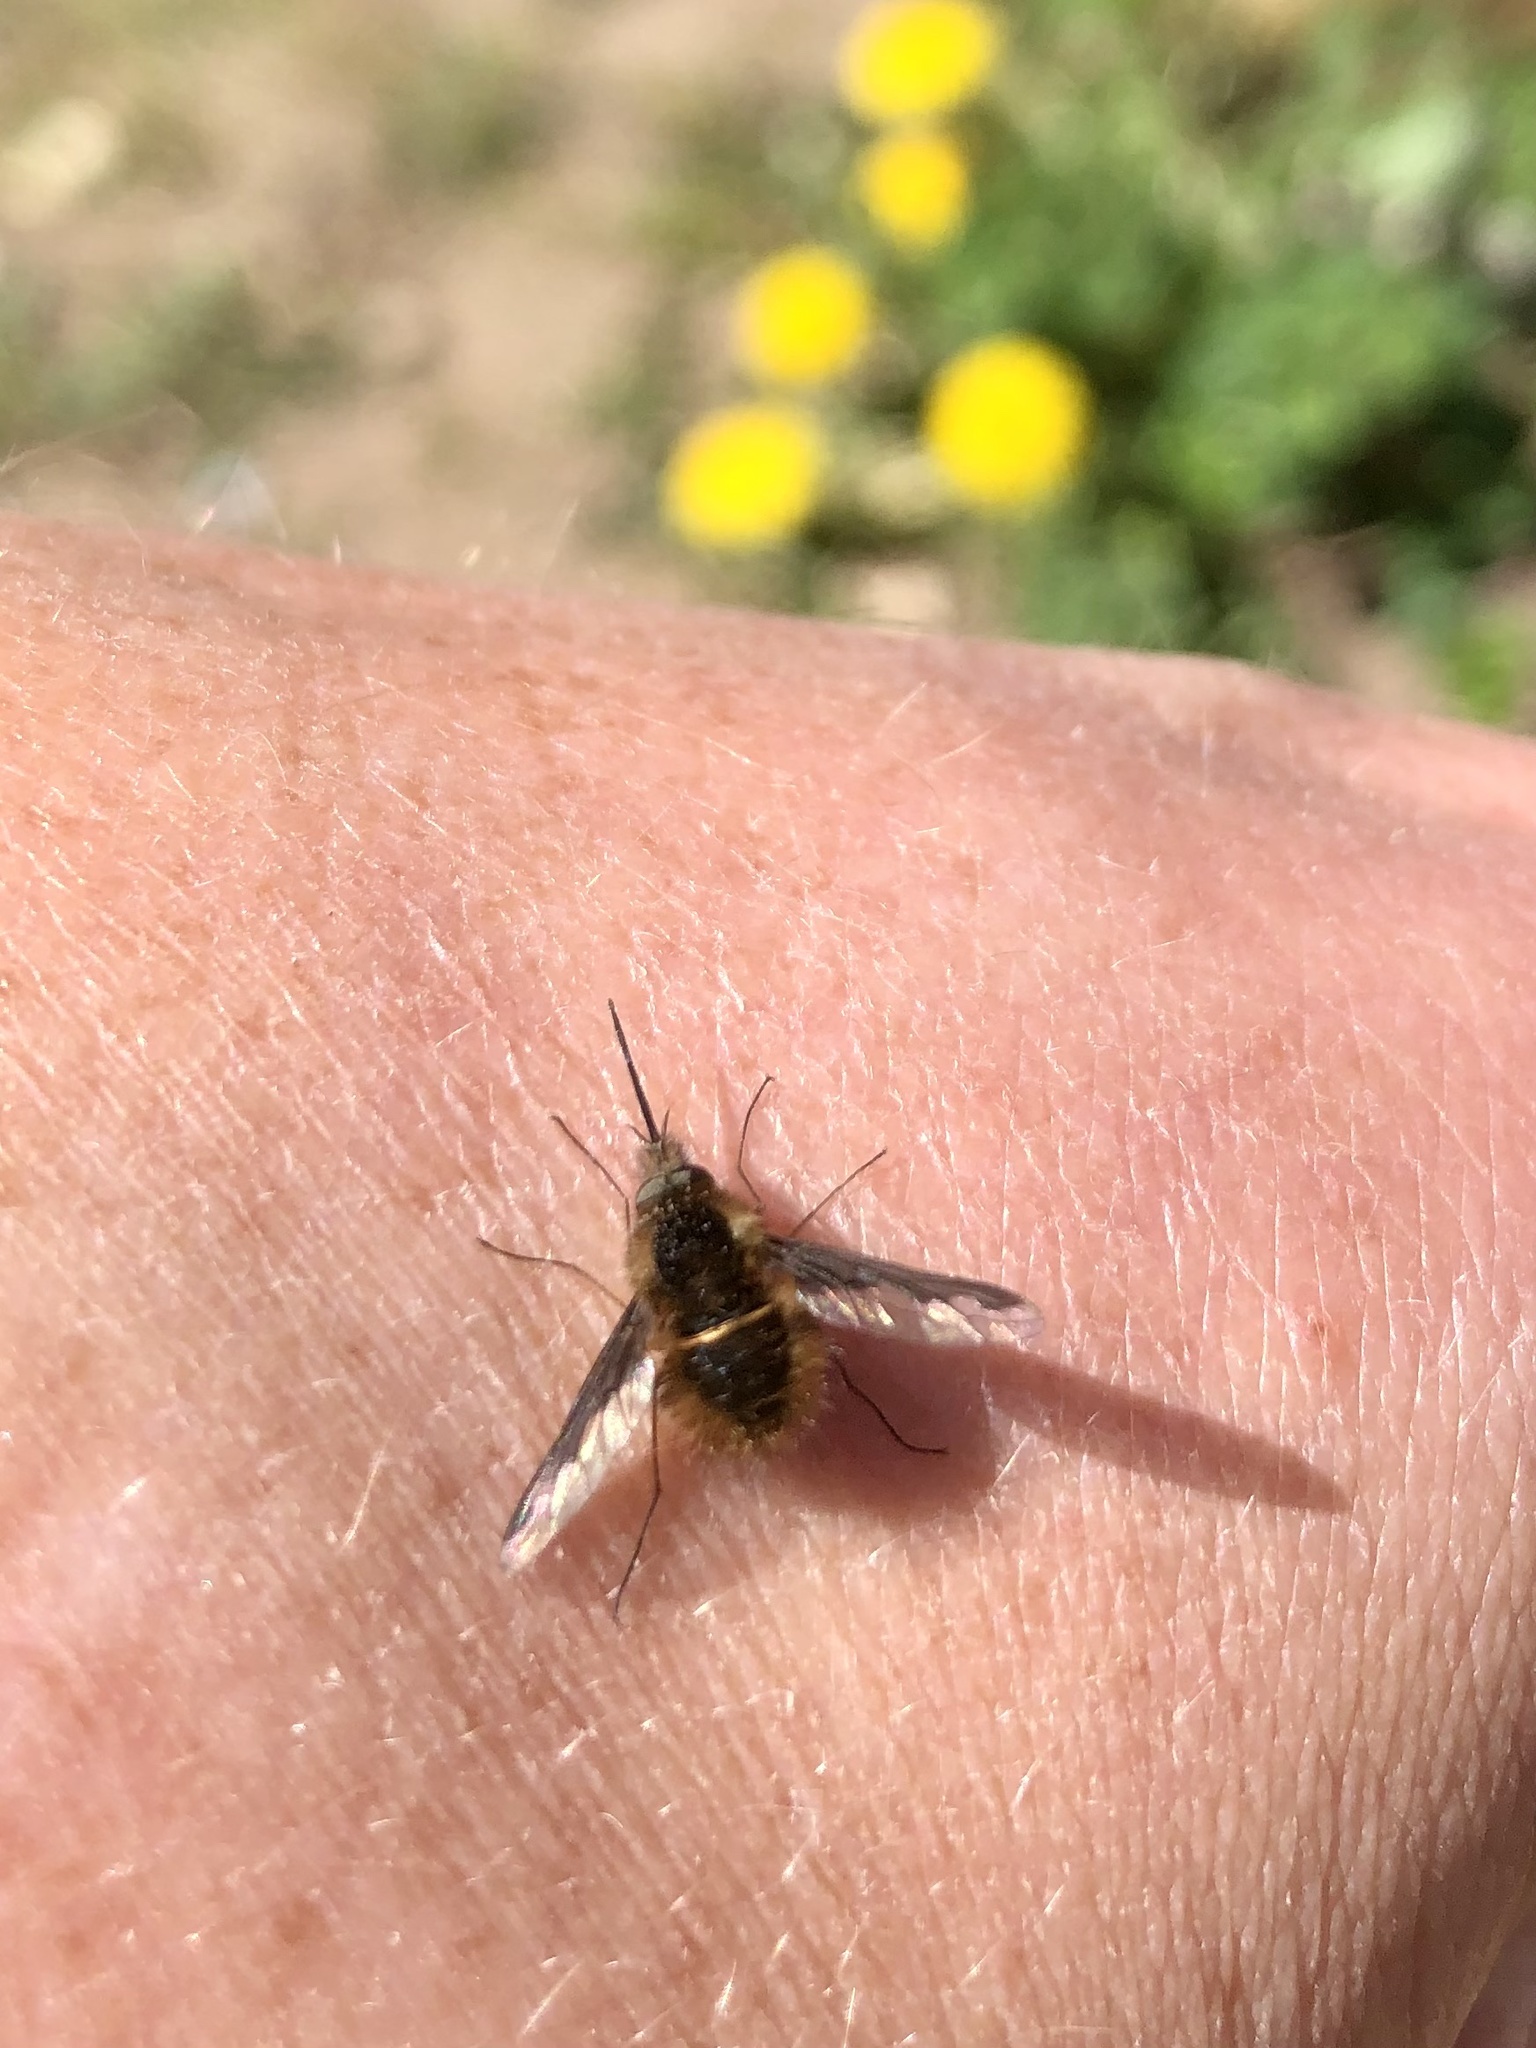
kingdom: Animalia
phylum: Arthropoda
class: Insecta
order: Diptera
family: Bombyliidae
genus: Bombylius
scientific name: Bombylius major
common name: Bee fly
